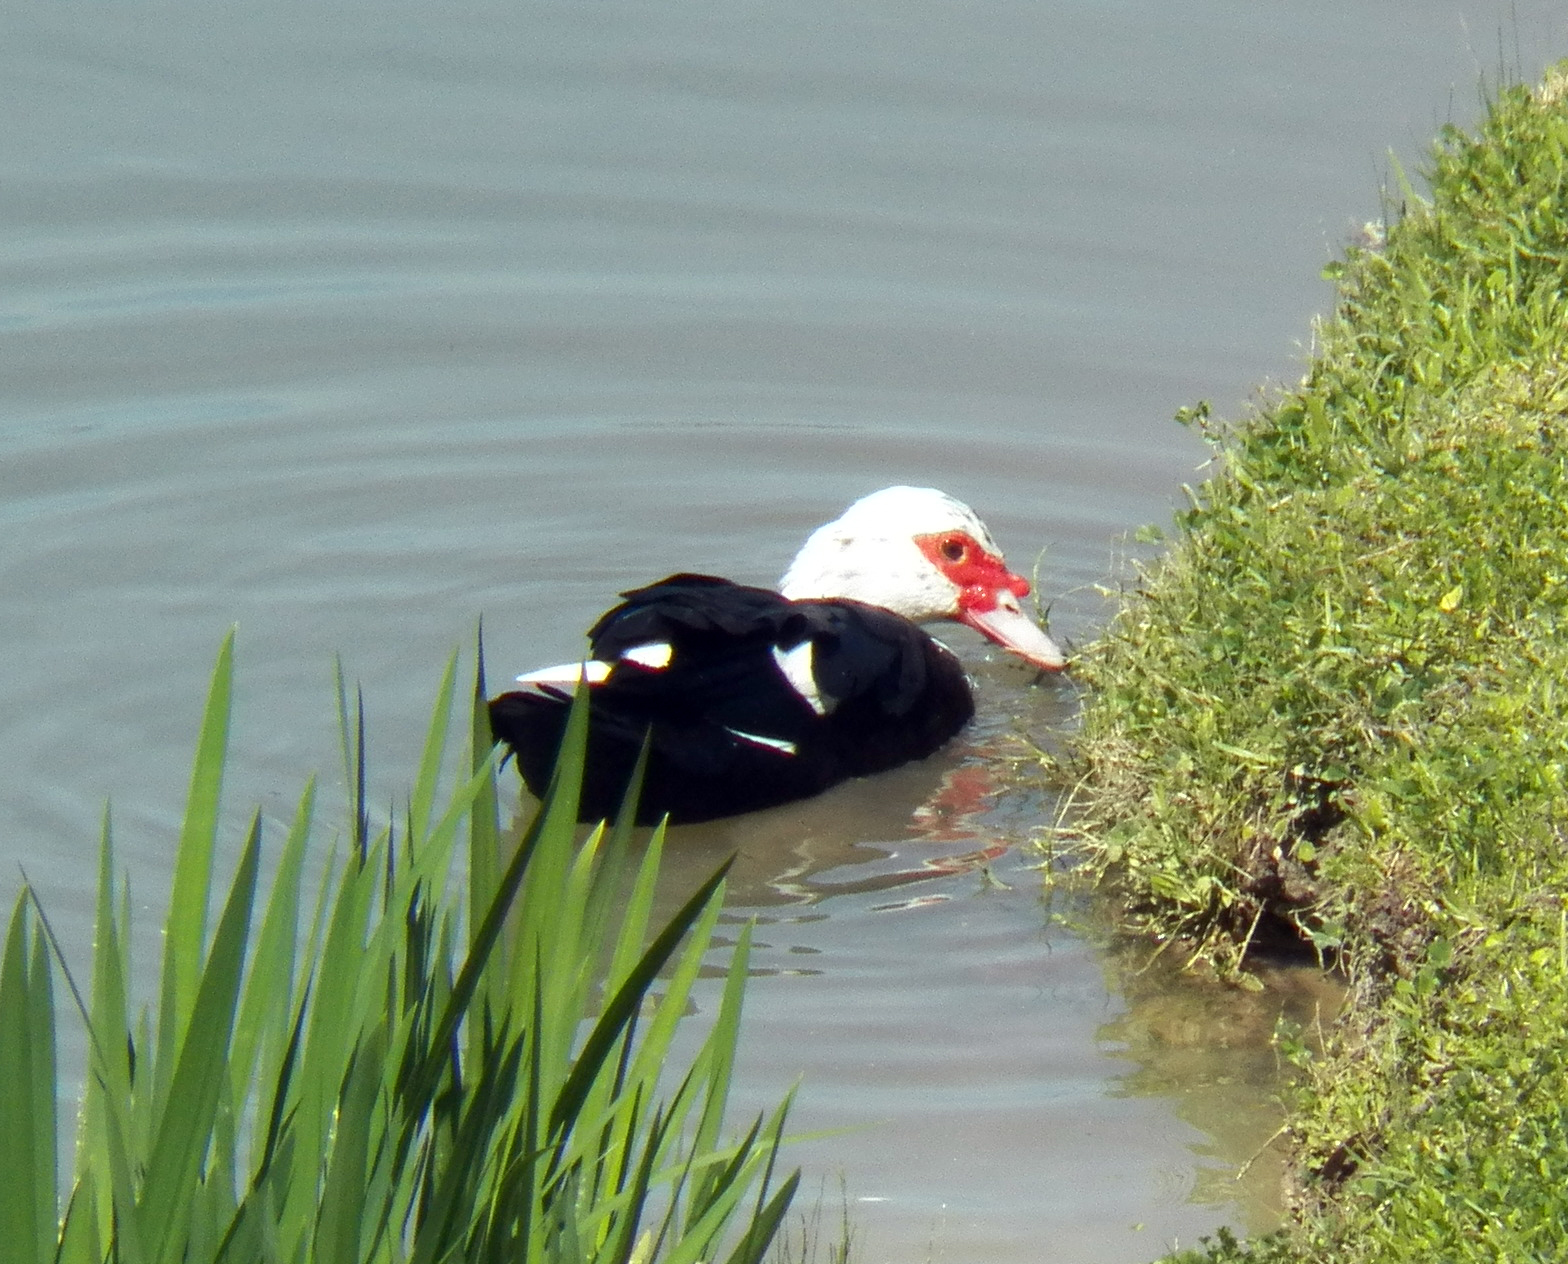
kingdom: Animalia
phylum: Chordata
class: Aves
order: Anseriformes
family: Anatidae
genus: Cairina
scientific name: Cairina moschata
